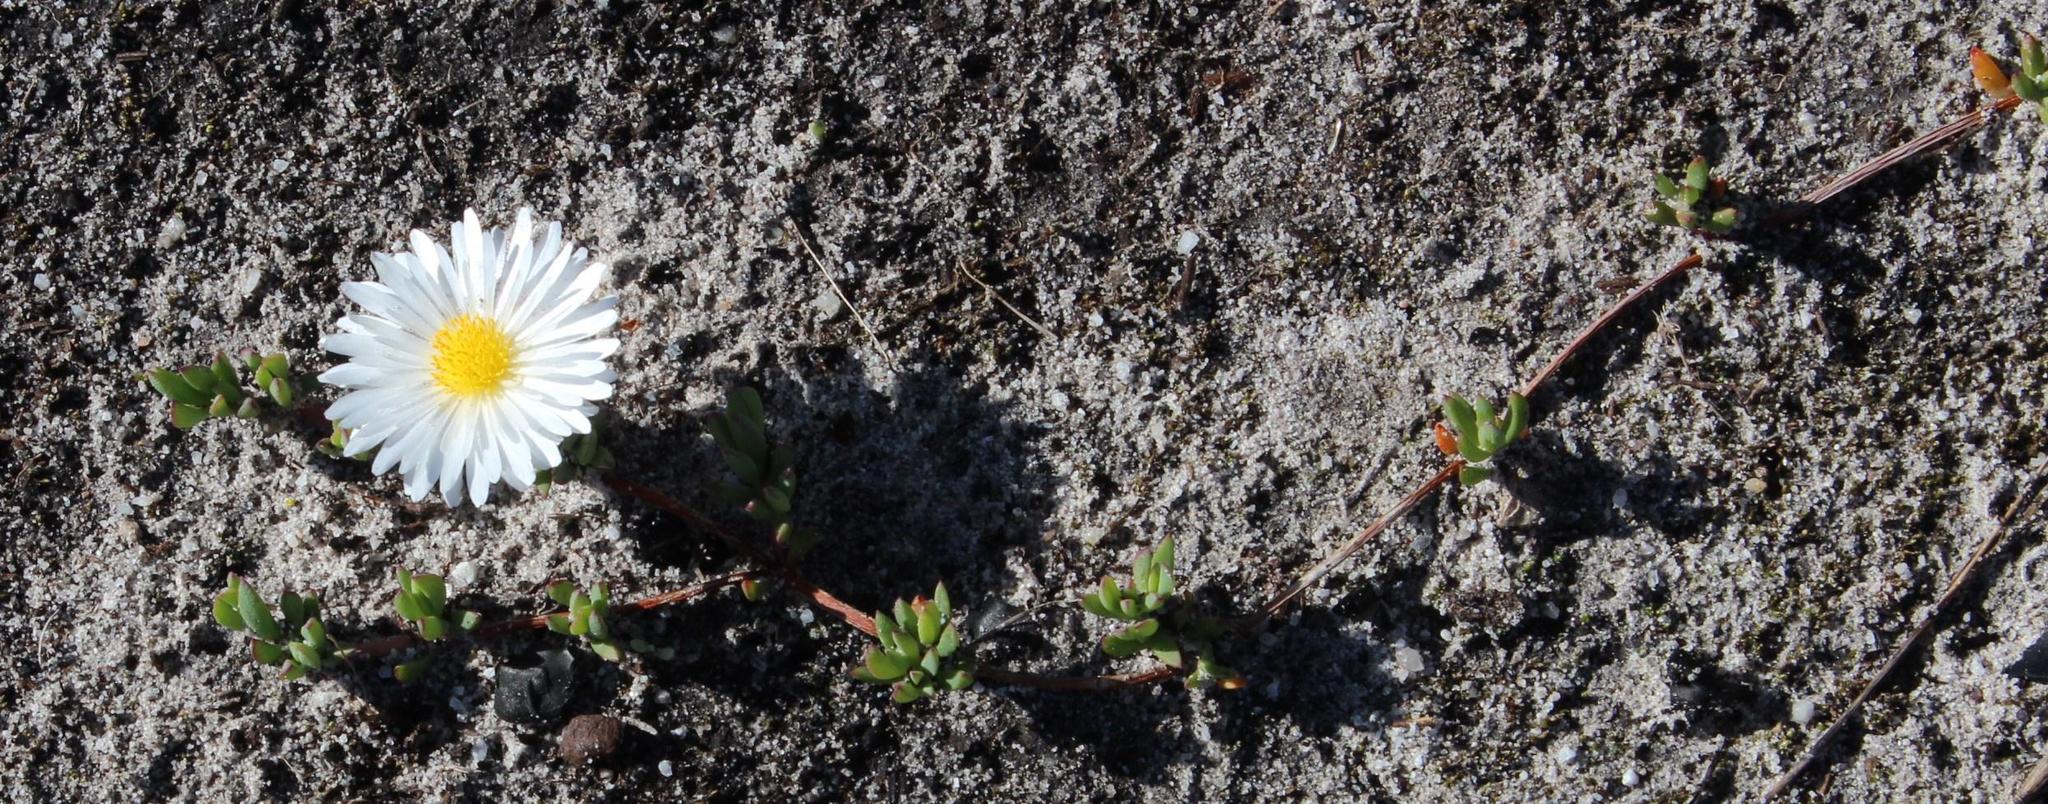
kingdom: Plantae
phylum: Tracheophyta
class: Magnoliopsida
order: Caryophyllales
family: Aizoaceae
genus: Lampranthus
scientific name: Lampranthus reptans
